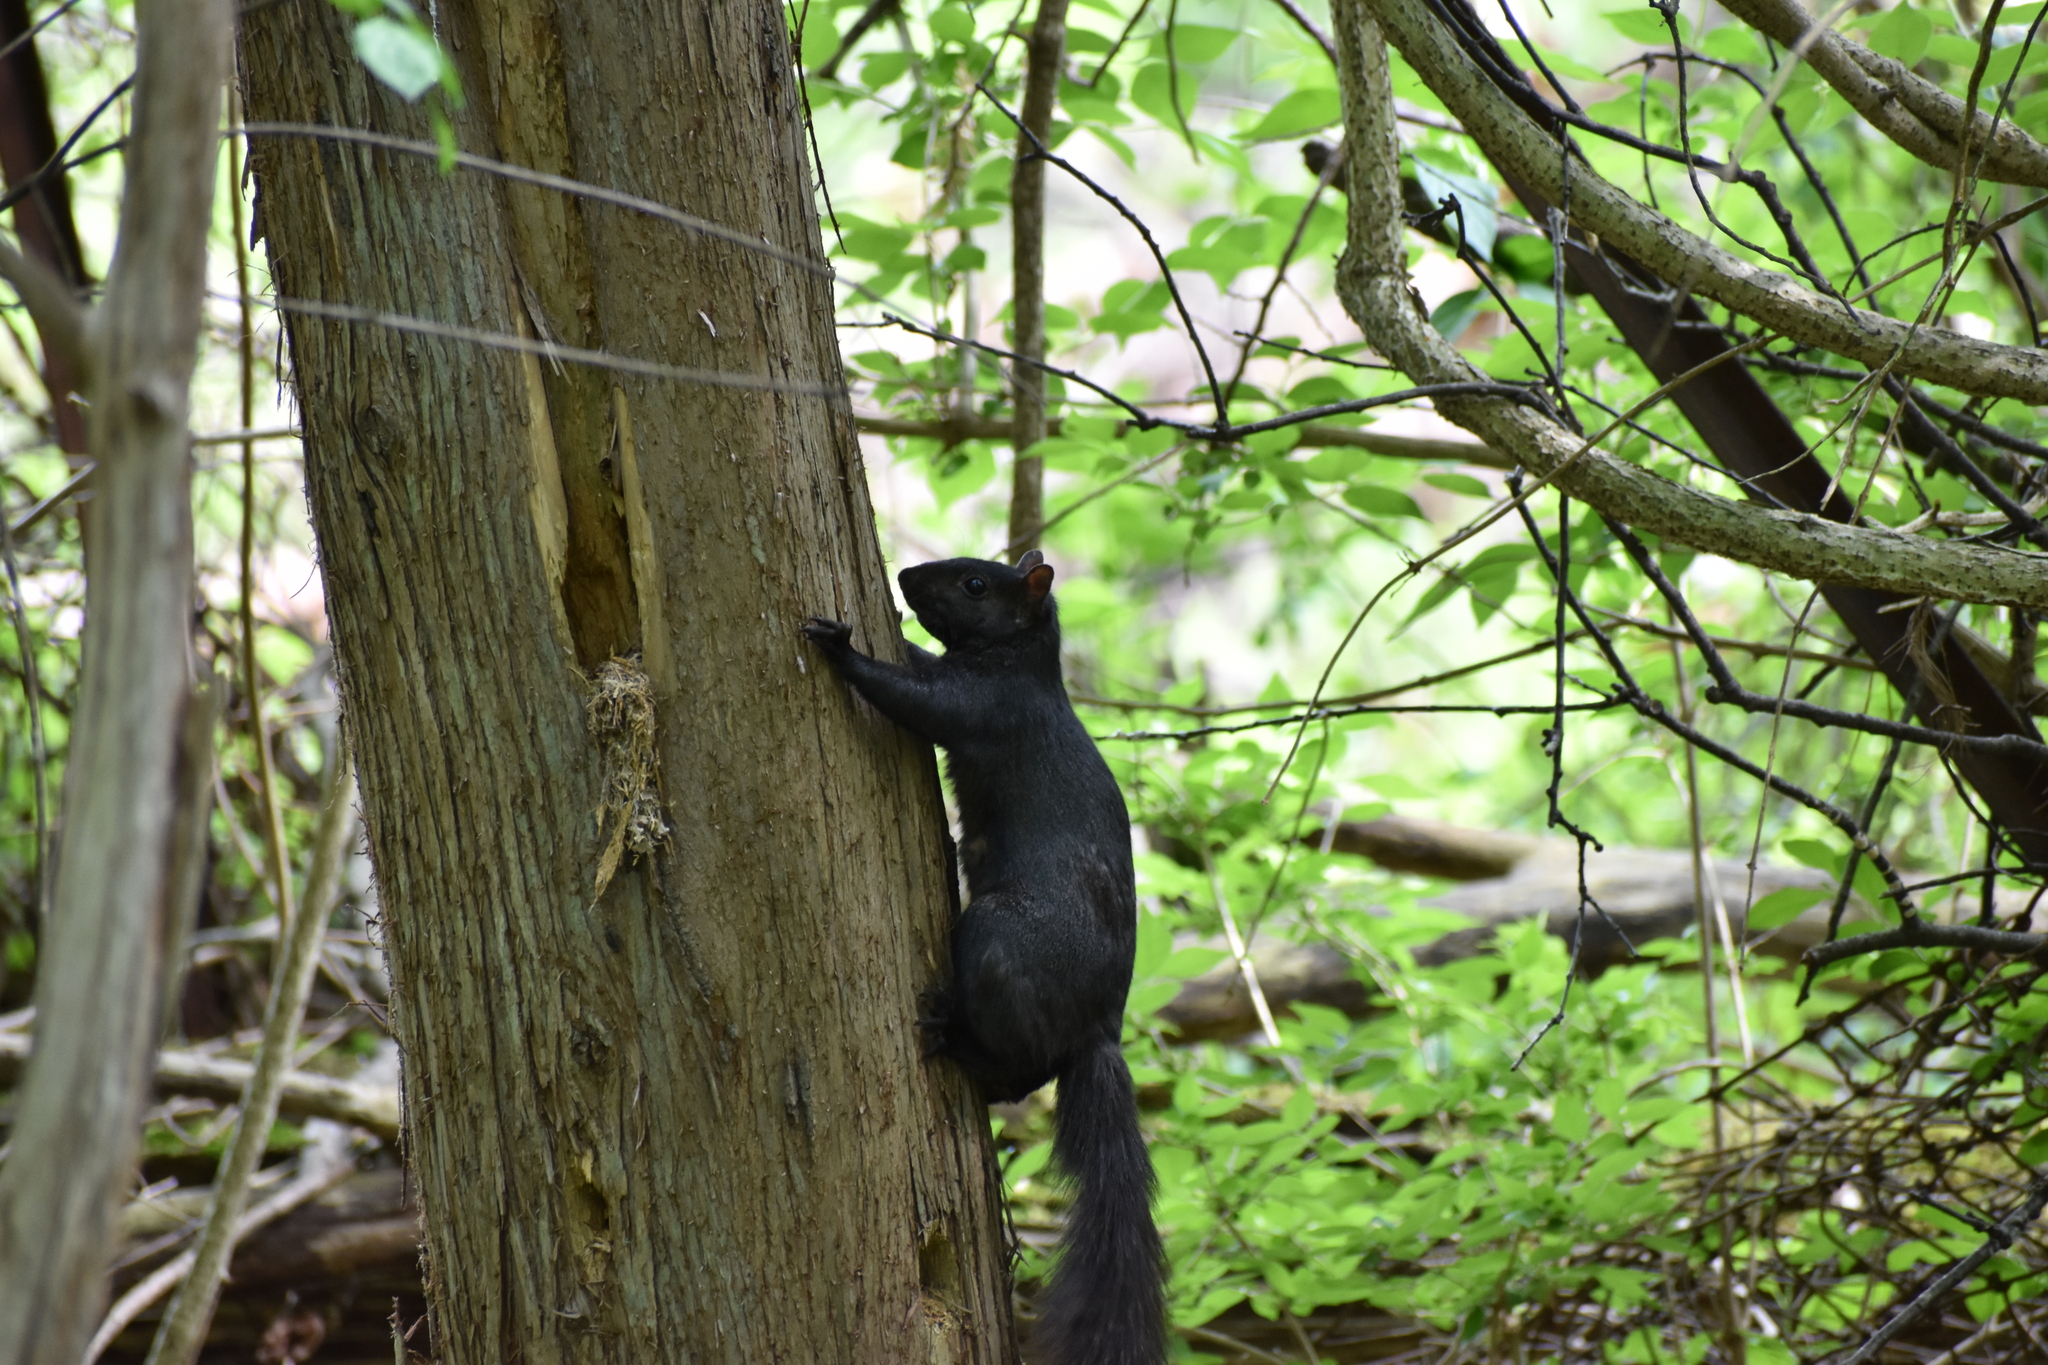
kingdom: Animalia
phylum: Chordata
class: Mammalia
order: Rodentia
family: Sciuridae
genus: Sciurus
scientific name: Sciurus carolinensis
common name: Eastern gray squirrel
